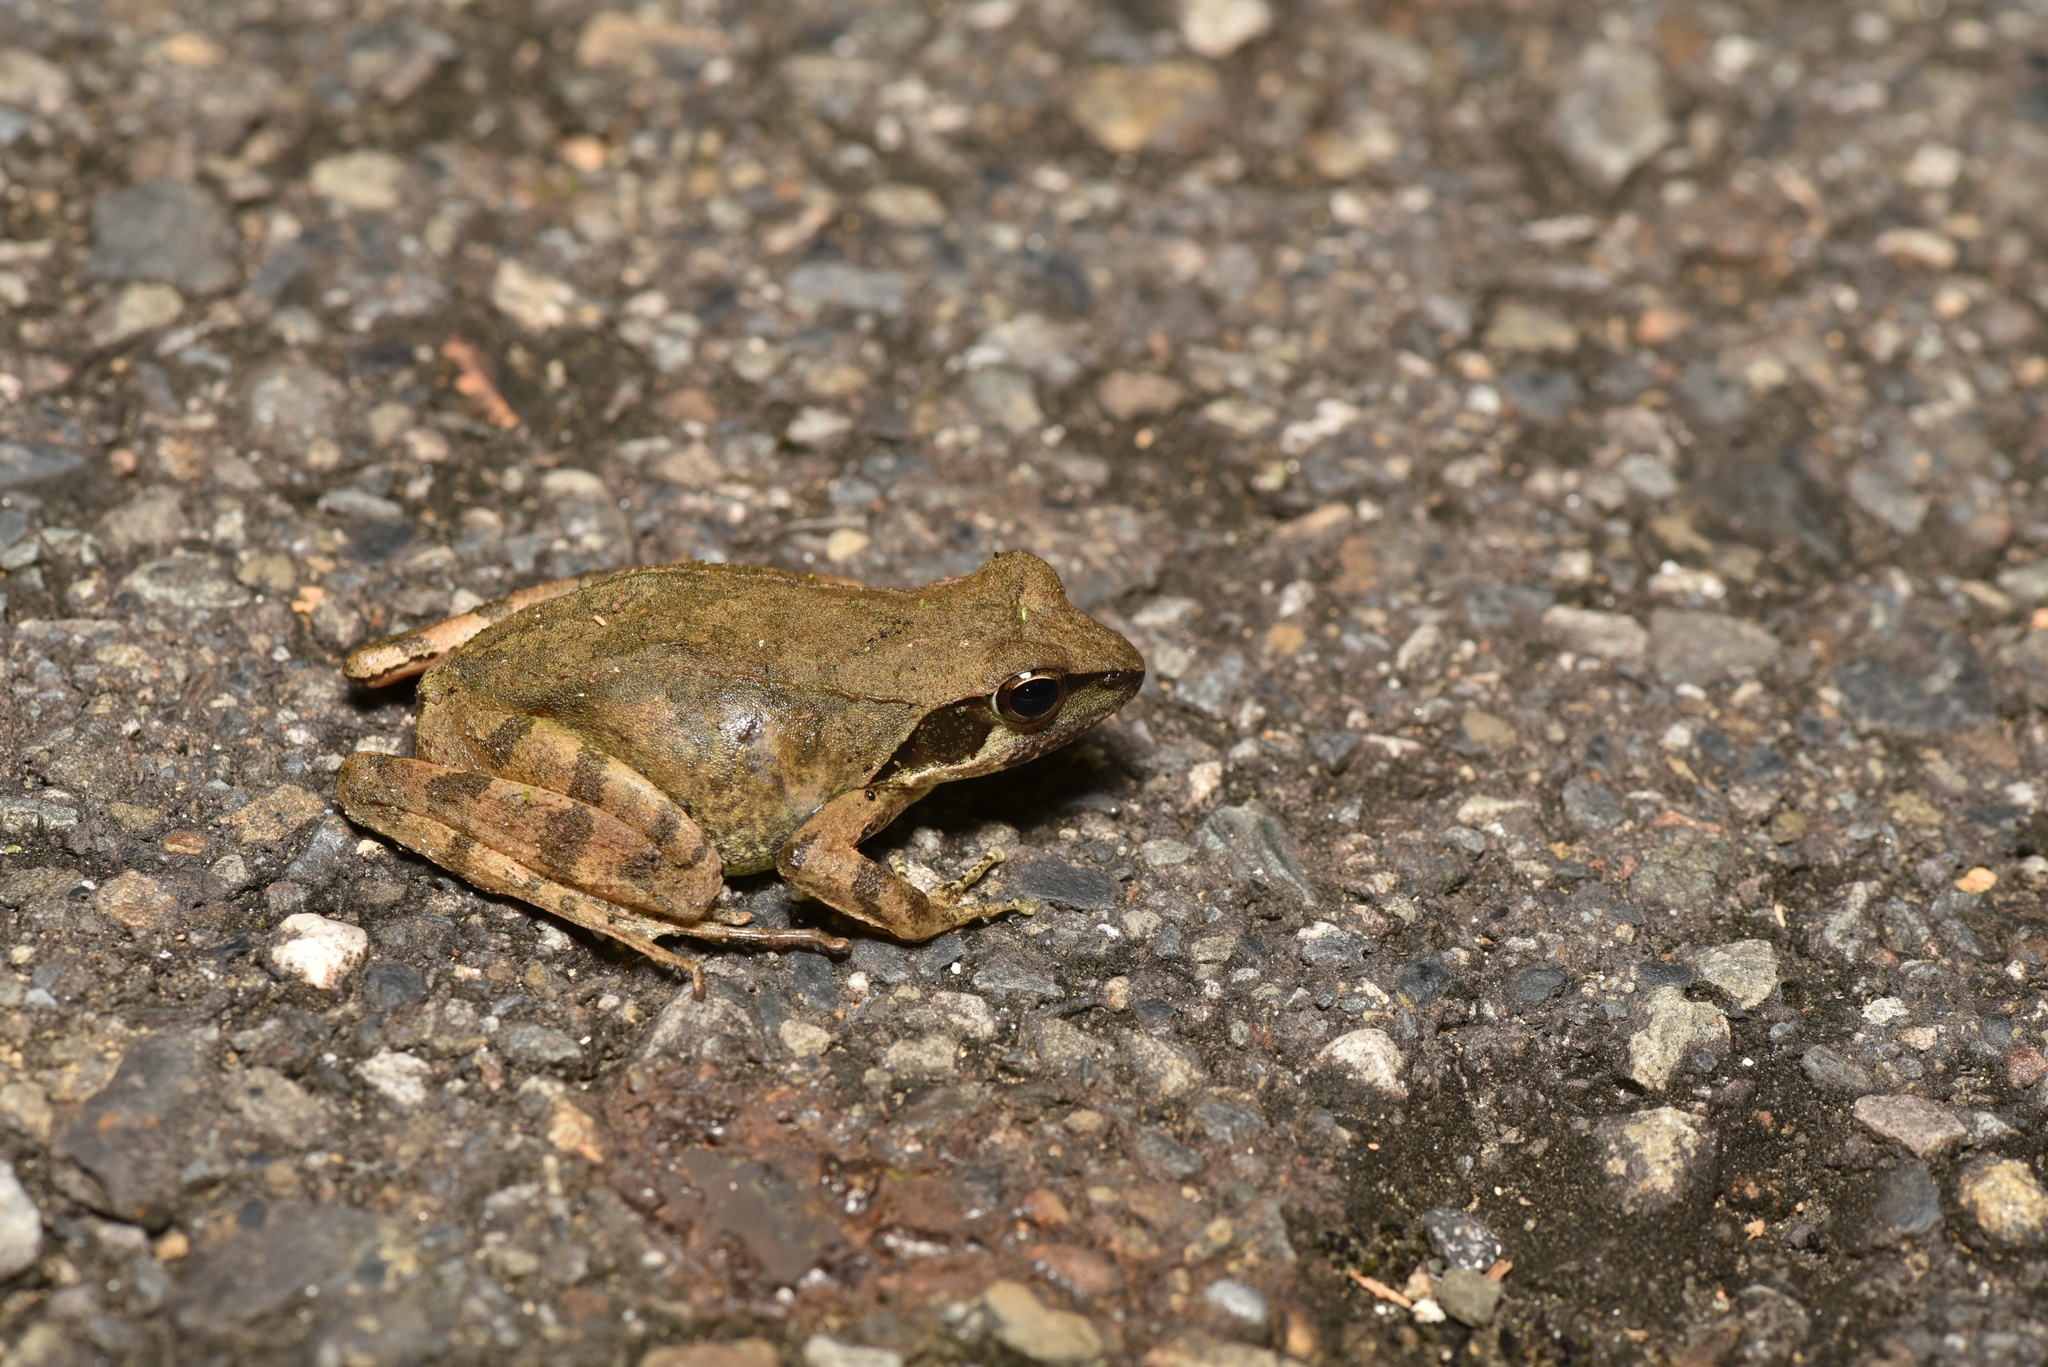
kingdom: Animalia
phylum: Chordata
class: Amphibia
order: Anura
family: Ranidae
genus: Rana
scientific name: Rana sauteri
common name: Kanshirei village frog
